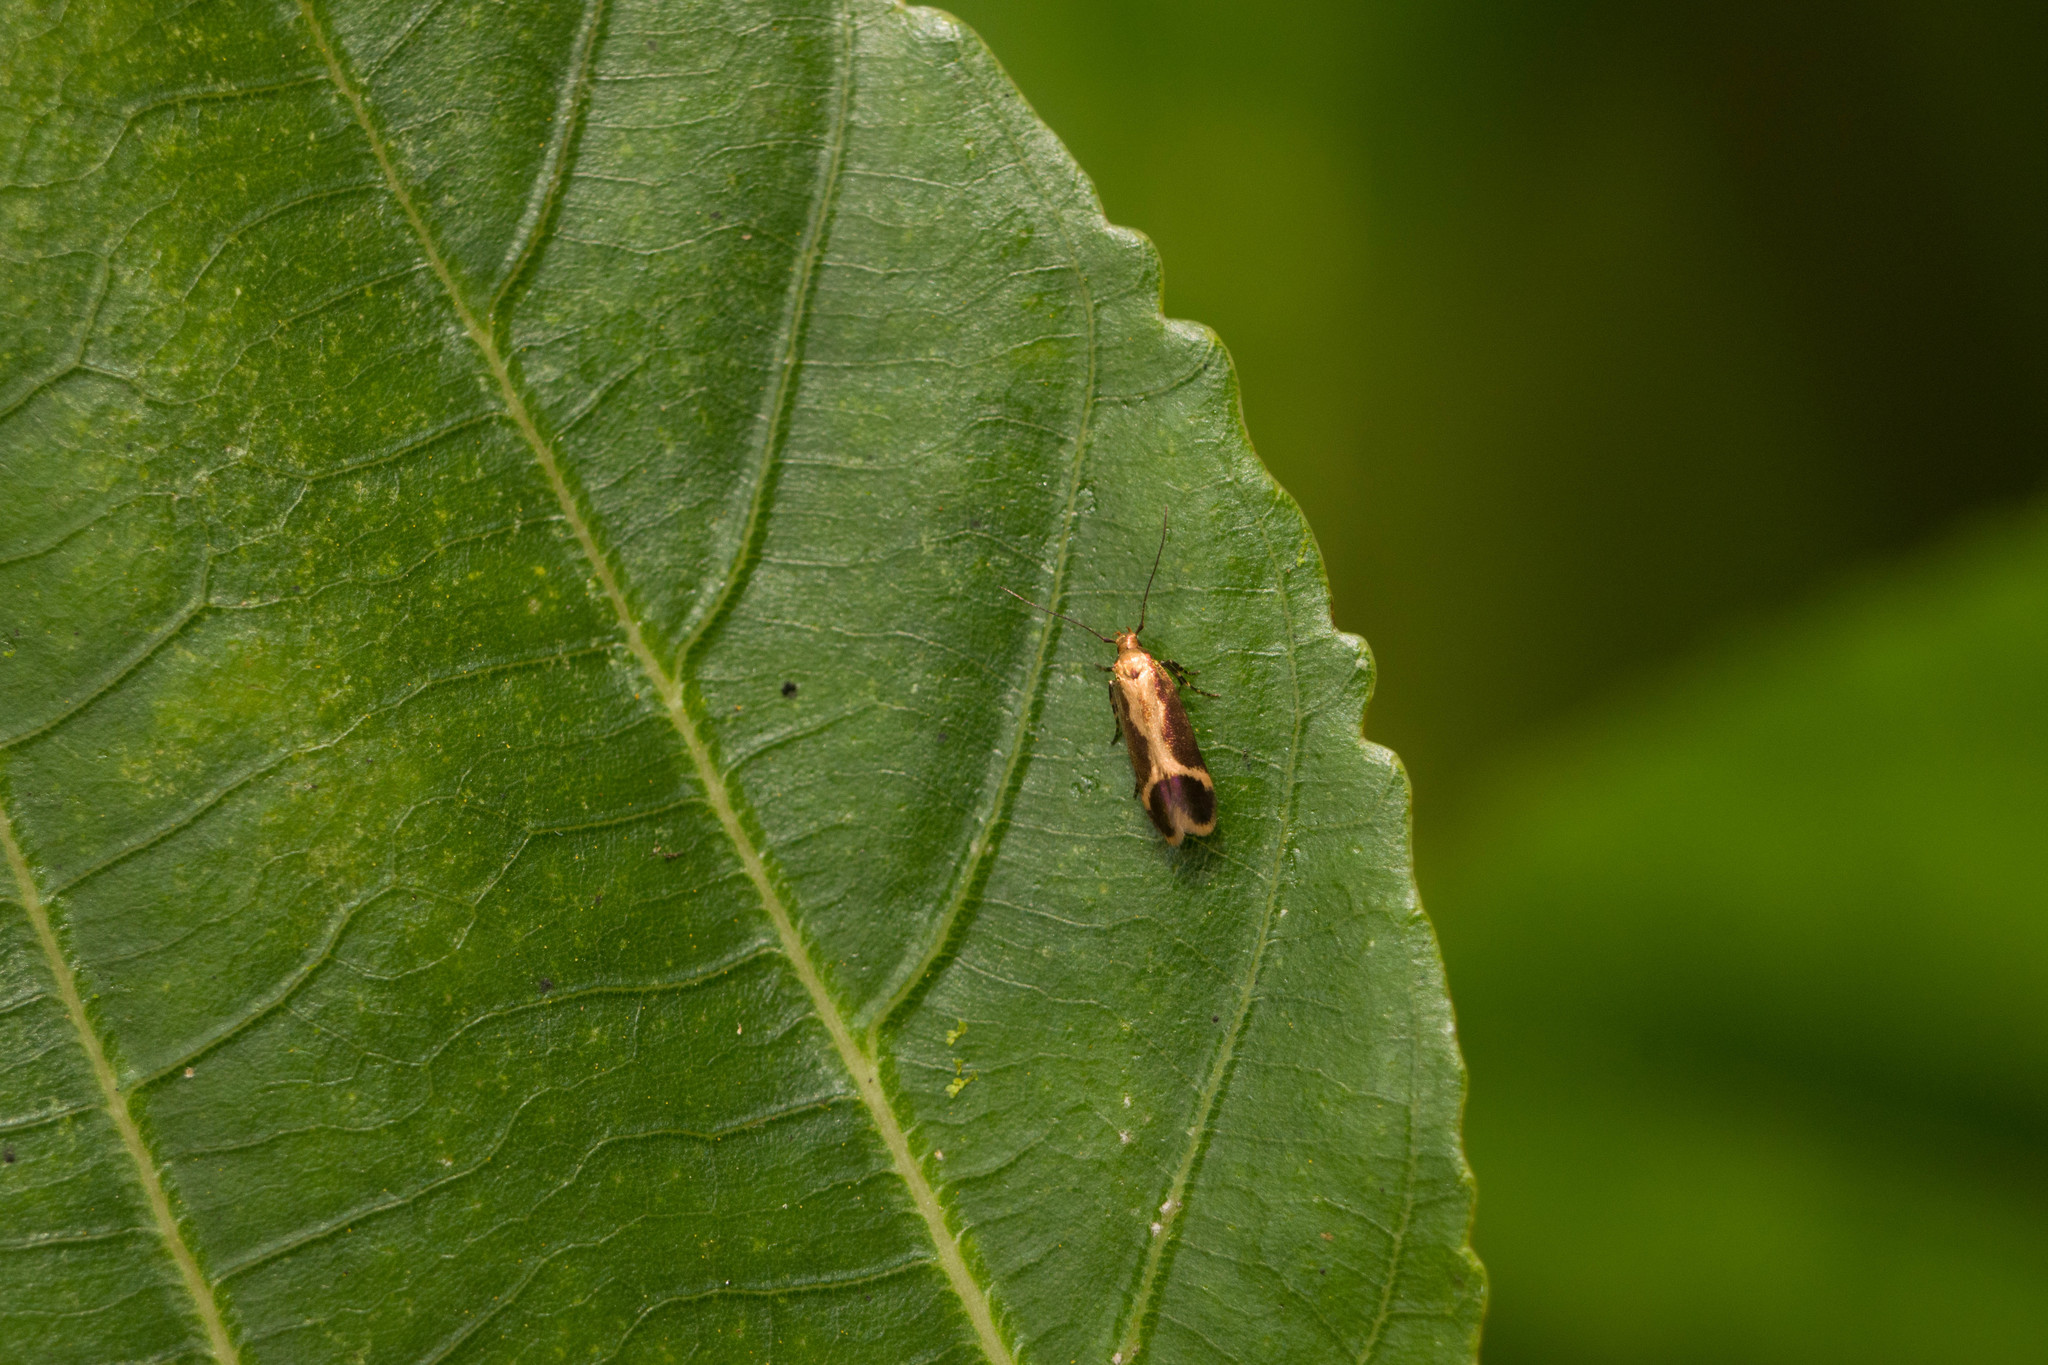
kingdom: Animalia
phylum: Arthropoda
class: Insecta
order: Lepidoptera
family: Cosmopterigidae
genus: Hyposmochoma
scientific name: Hyposmochoma auropurpurea
